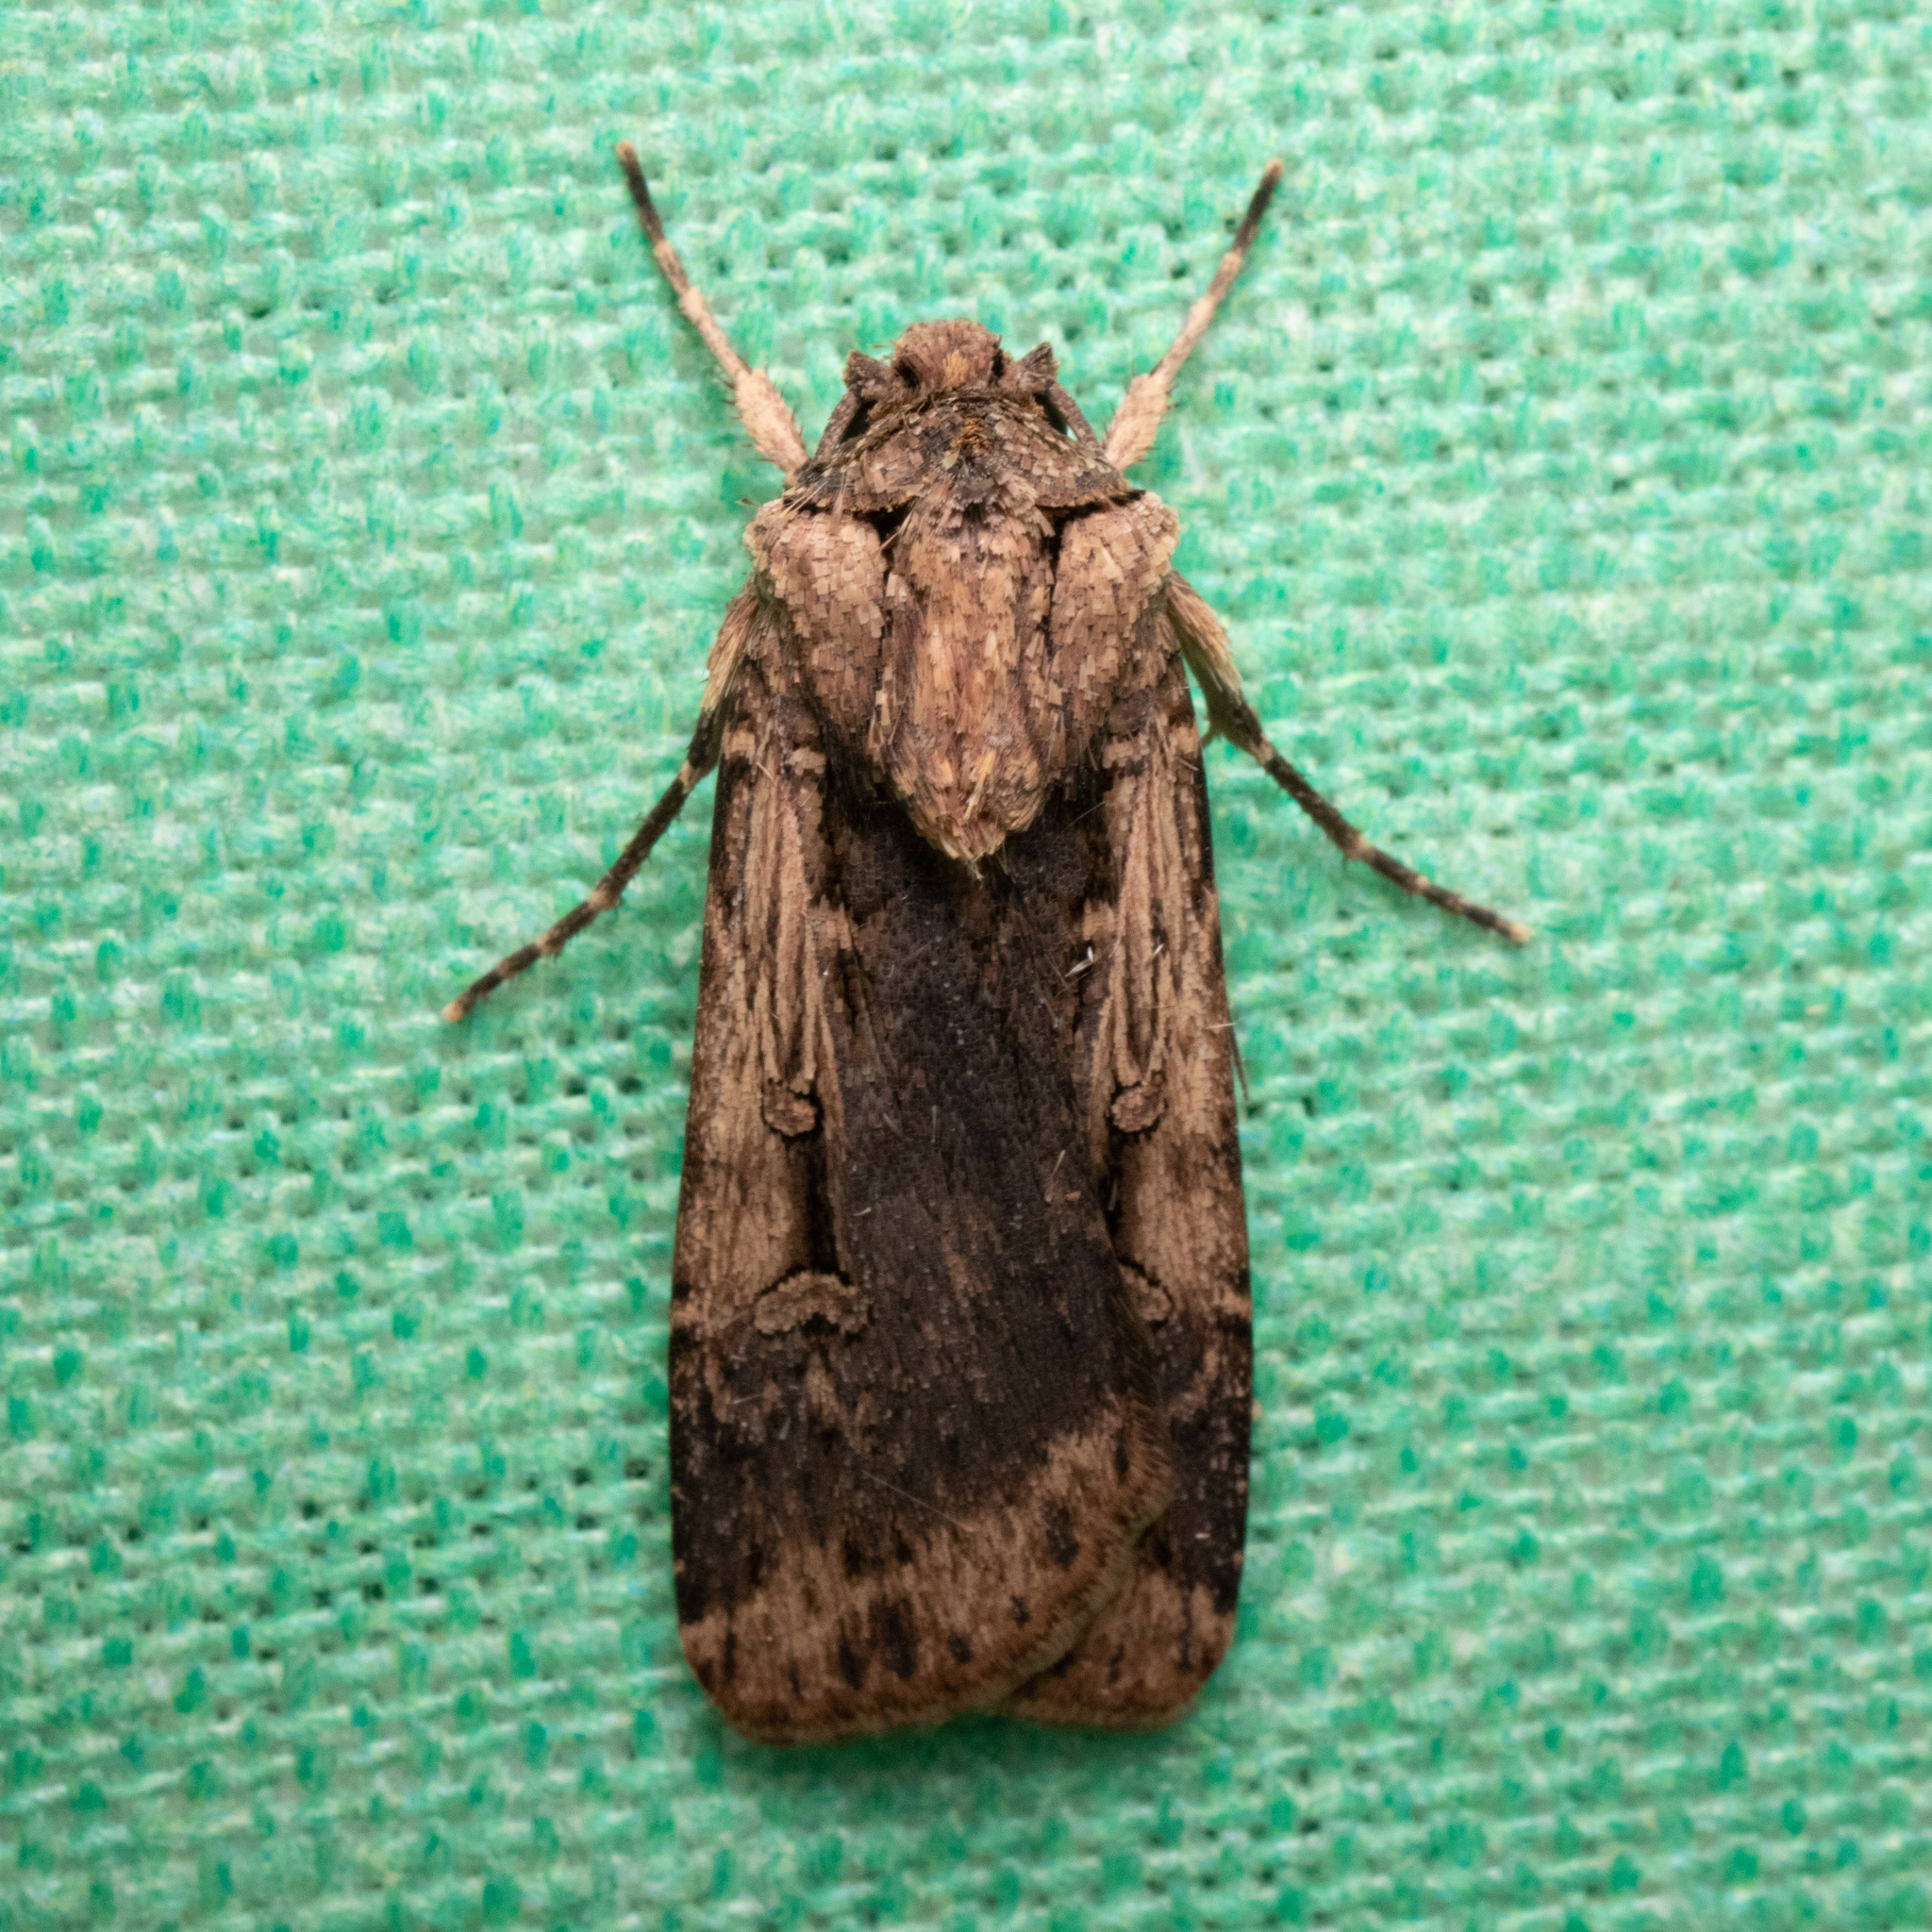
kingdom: Animalia
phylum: Arthropoda
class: Insecta
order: Lepidoptera
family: Noctuidae
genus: Feltia
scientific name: Feltia subterranea
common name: Granulate cutworm
